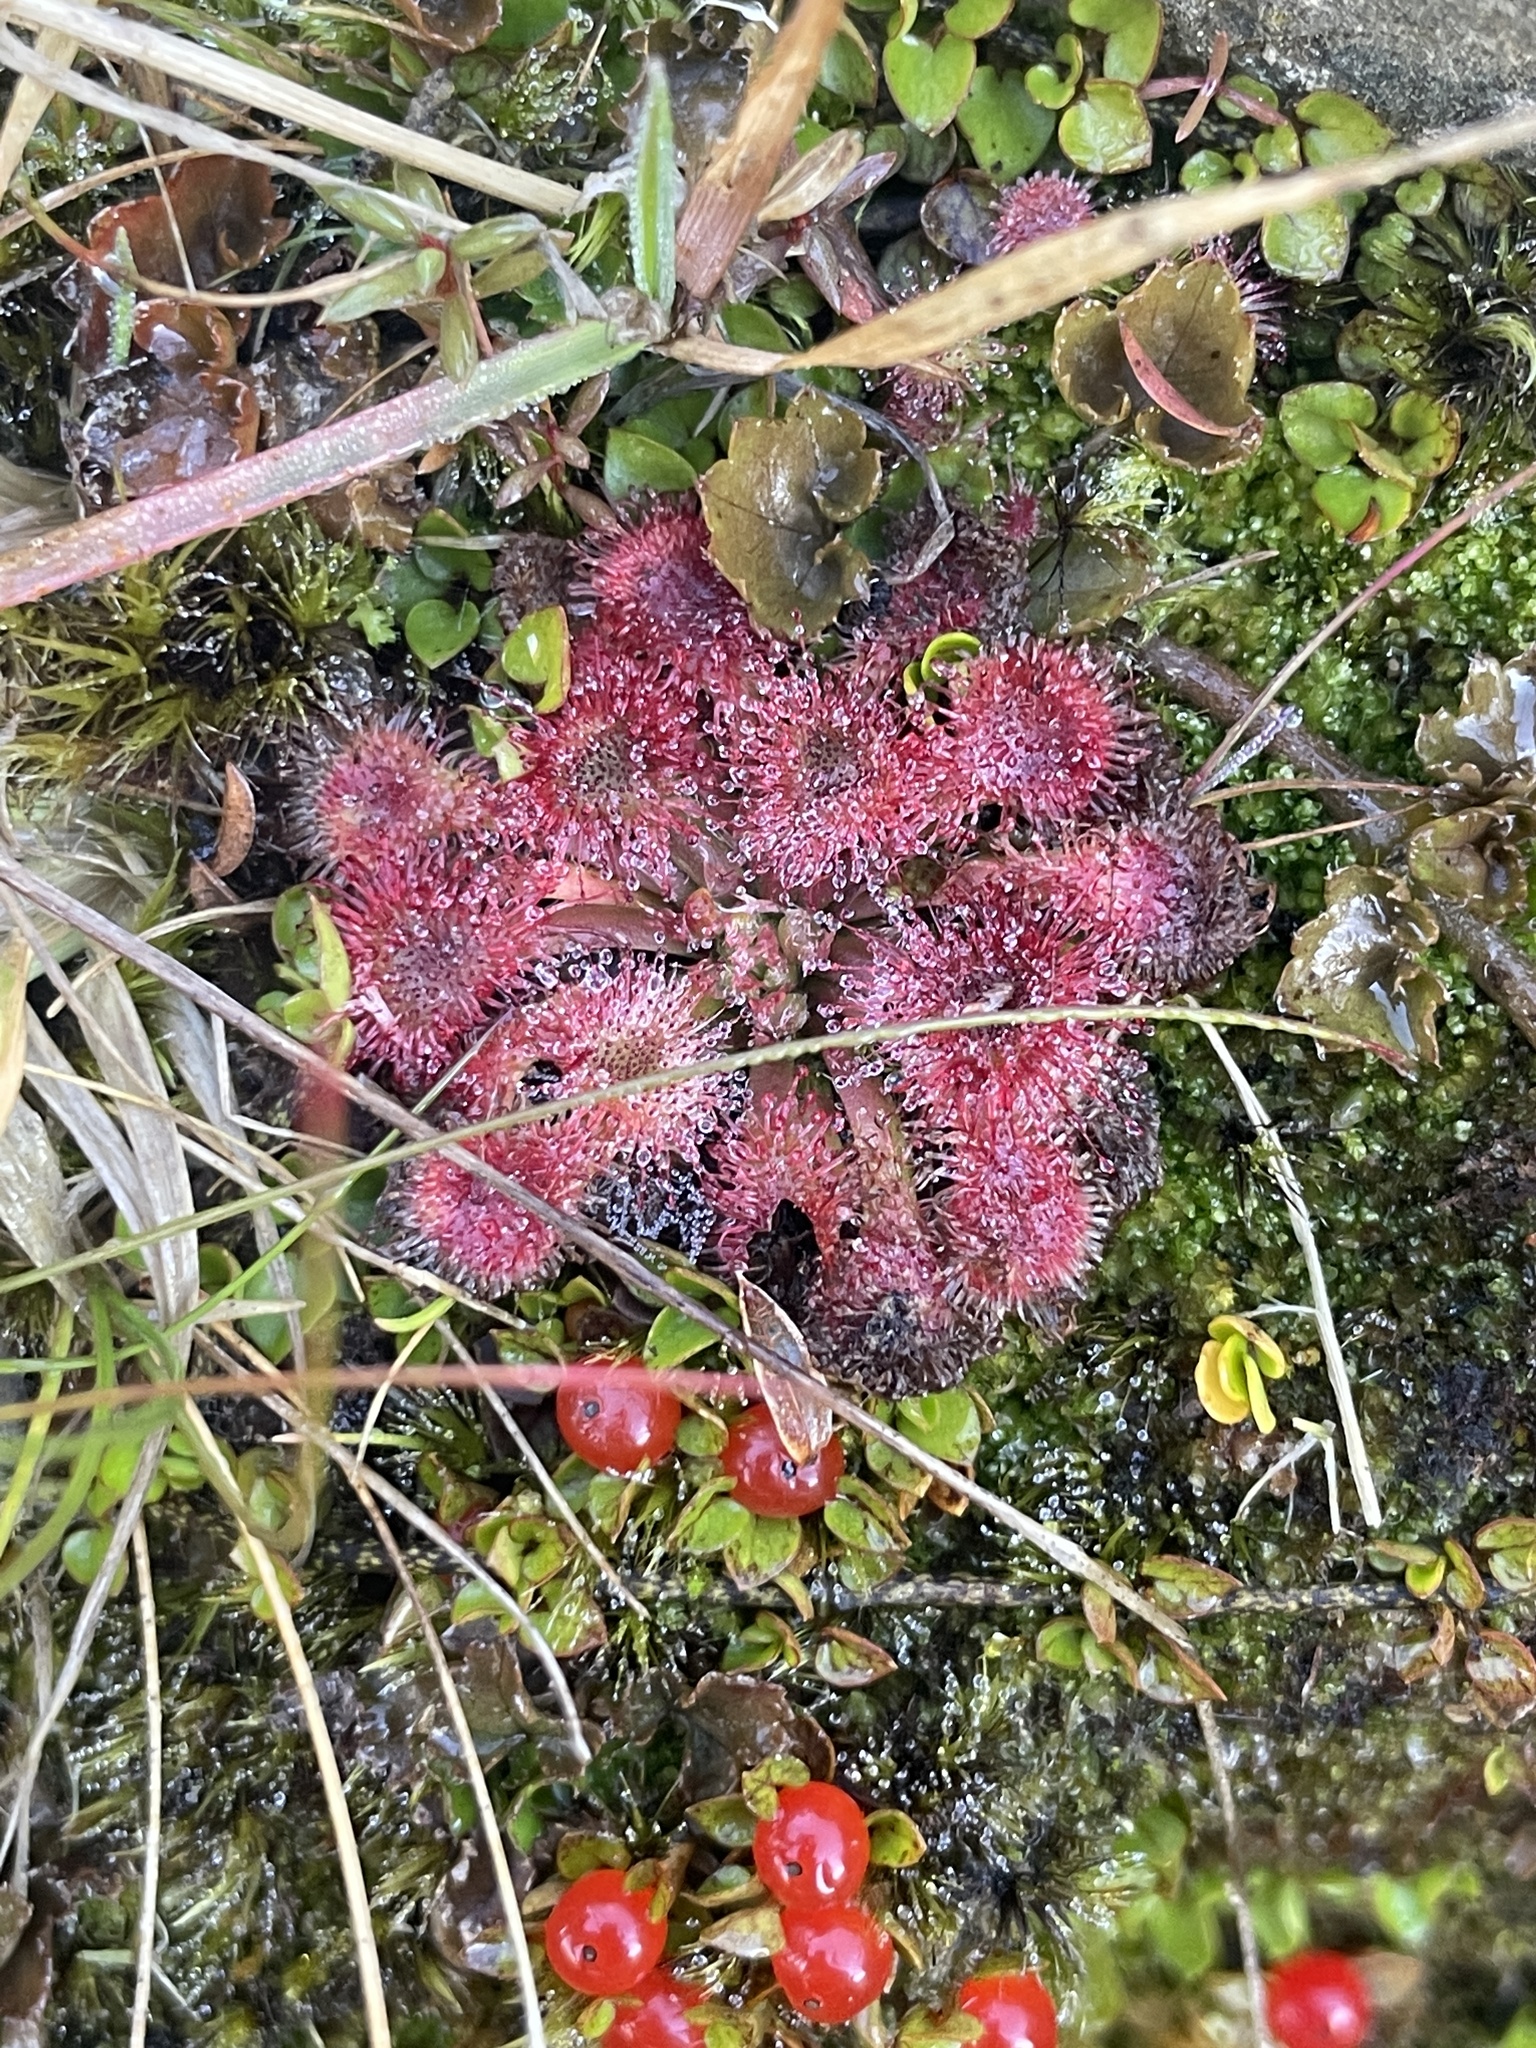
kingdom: Plantae
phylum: Tracheophyta
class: Magnoliopsida
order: Caryophyllales
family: Droseraceae
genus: Drosera
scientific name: Drosera spatulata
